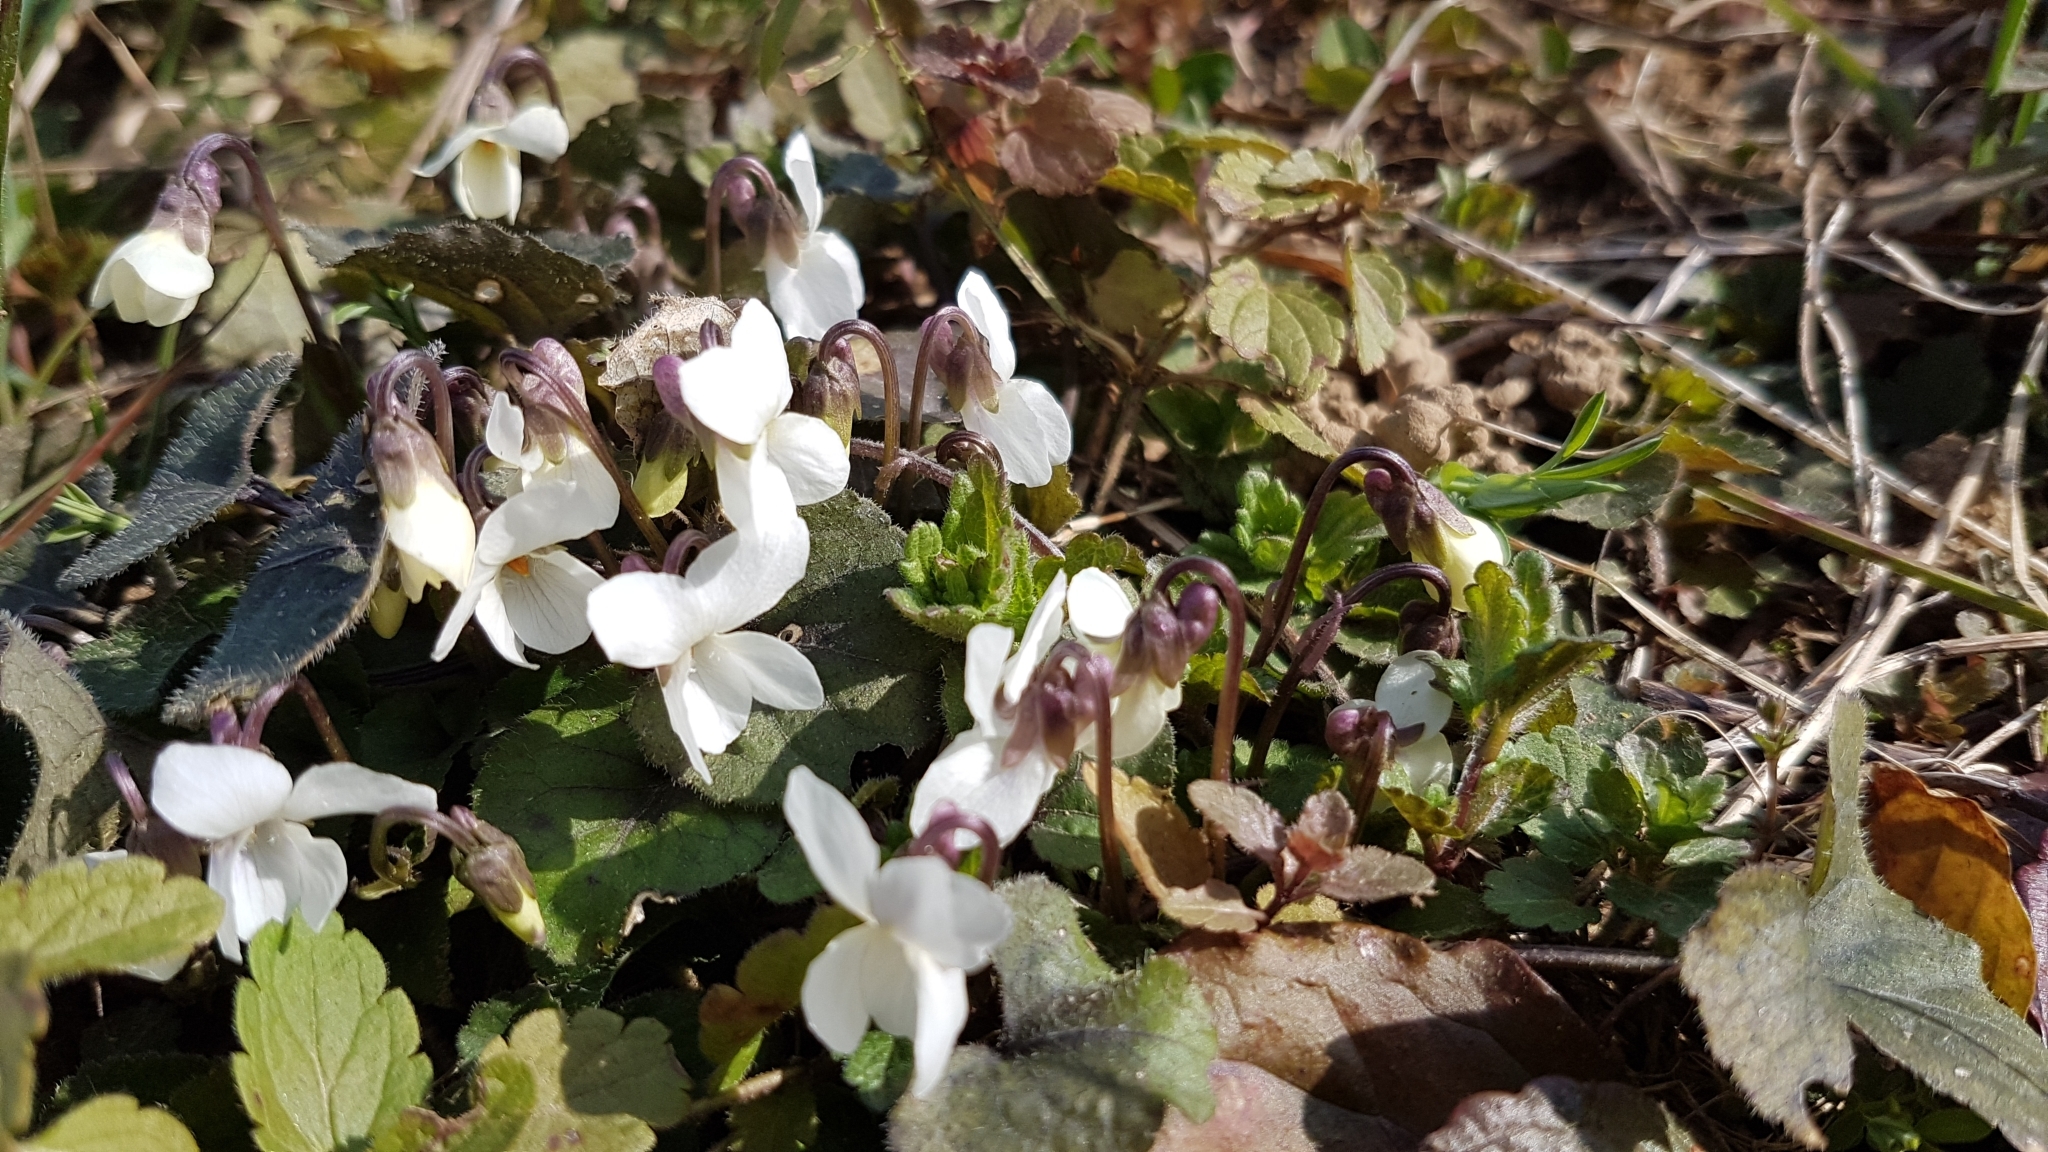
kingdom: Plantae
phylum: Tracheophyta
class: Magnoliopsida
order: Malpighiales
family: Violaceae
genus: Viola
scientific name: Viola alba
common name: White violet
